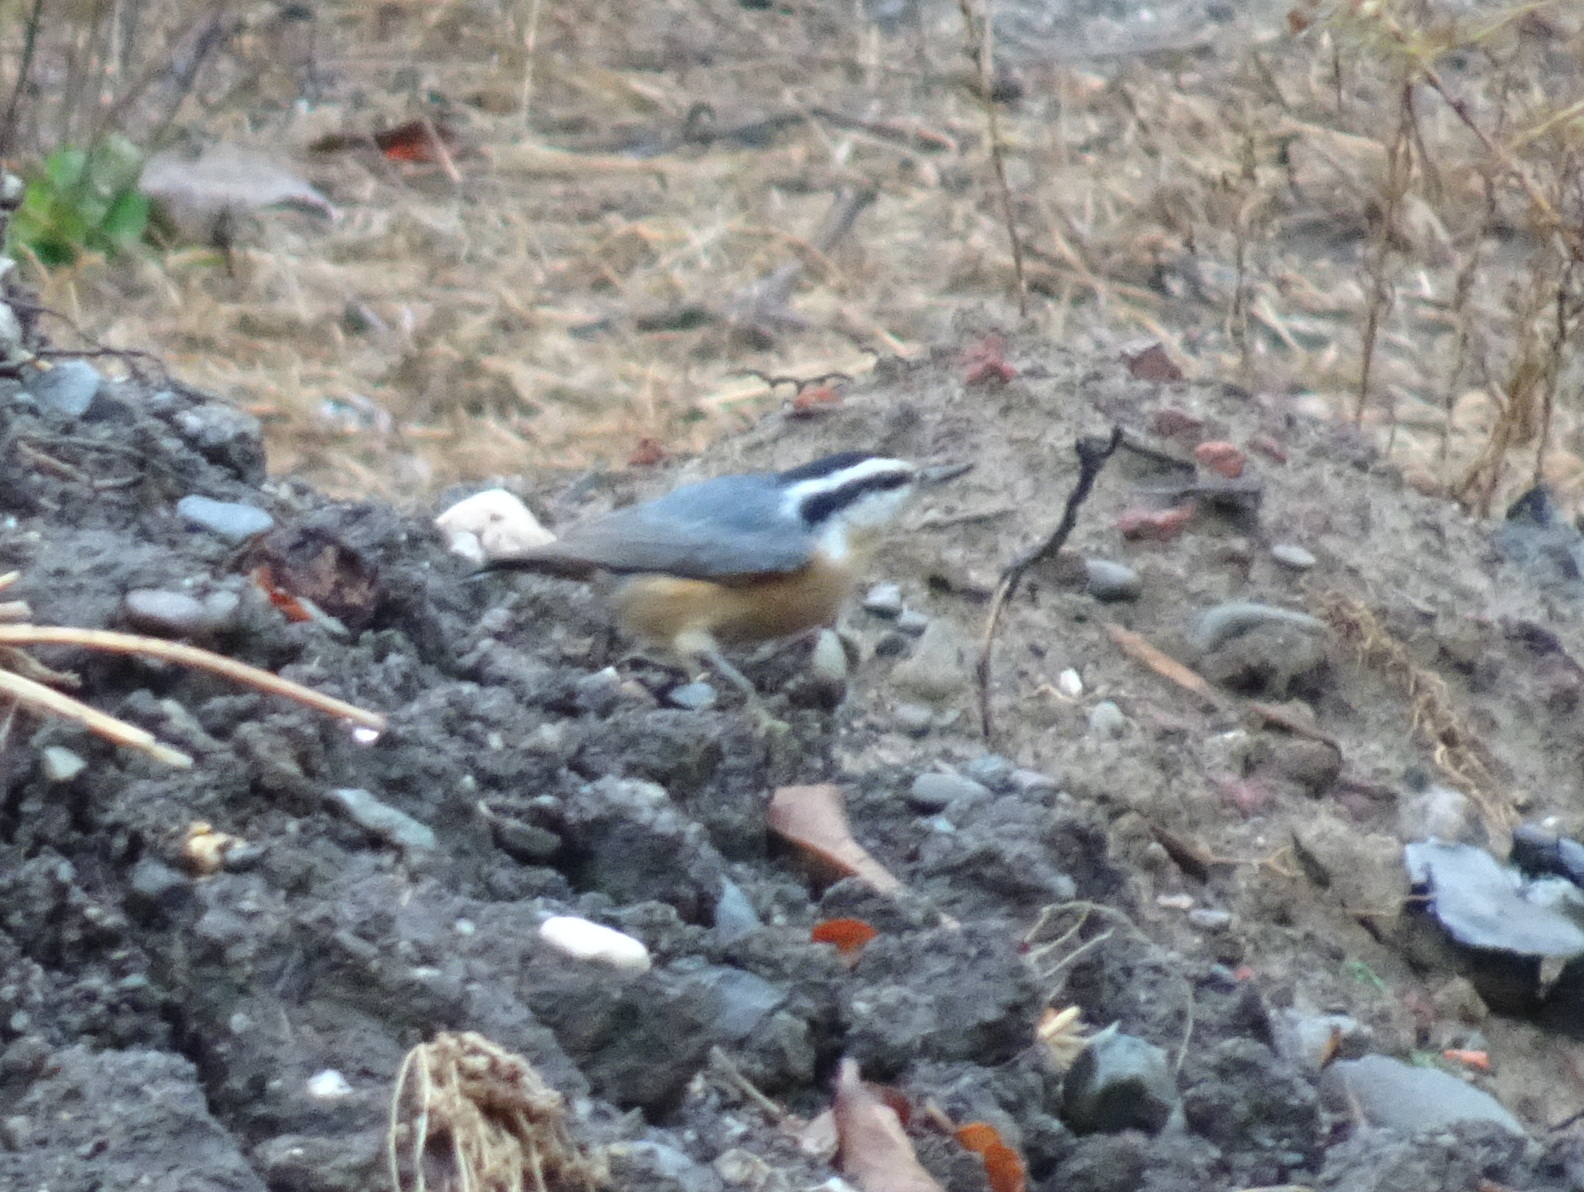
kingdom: Animalia
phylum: Chordata
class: Aves
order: Passeriformes
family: Sittidae
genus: Sitta
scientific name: Sitta canadensis
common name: Red-breasted nuthatch
